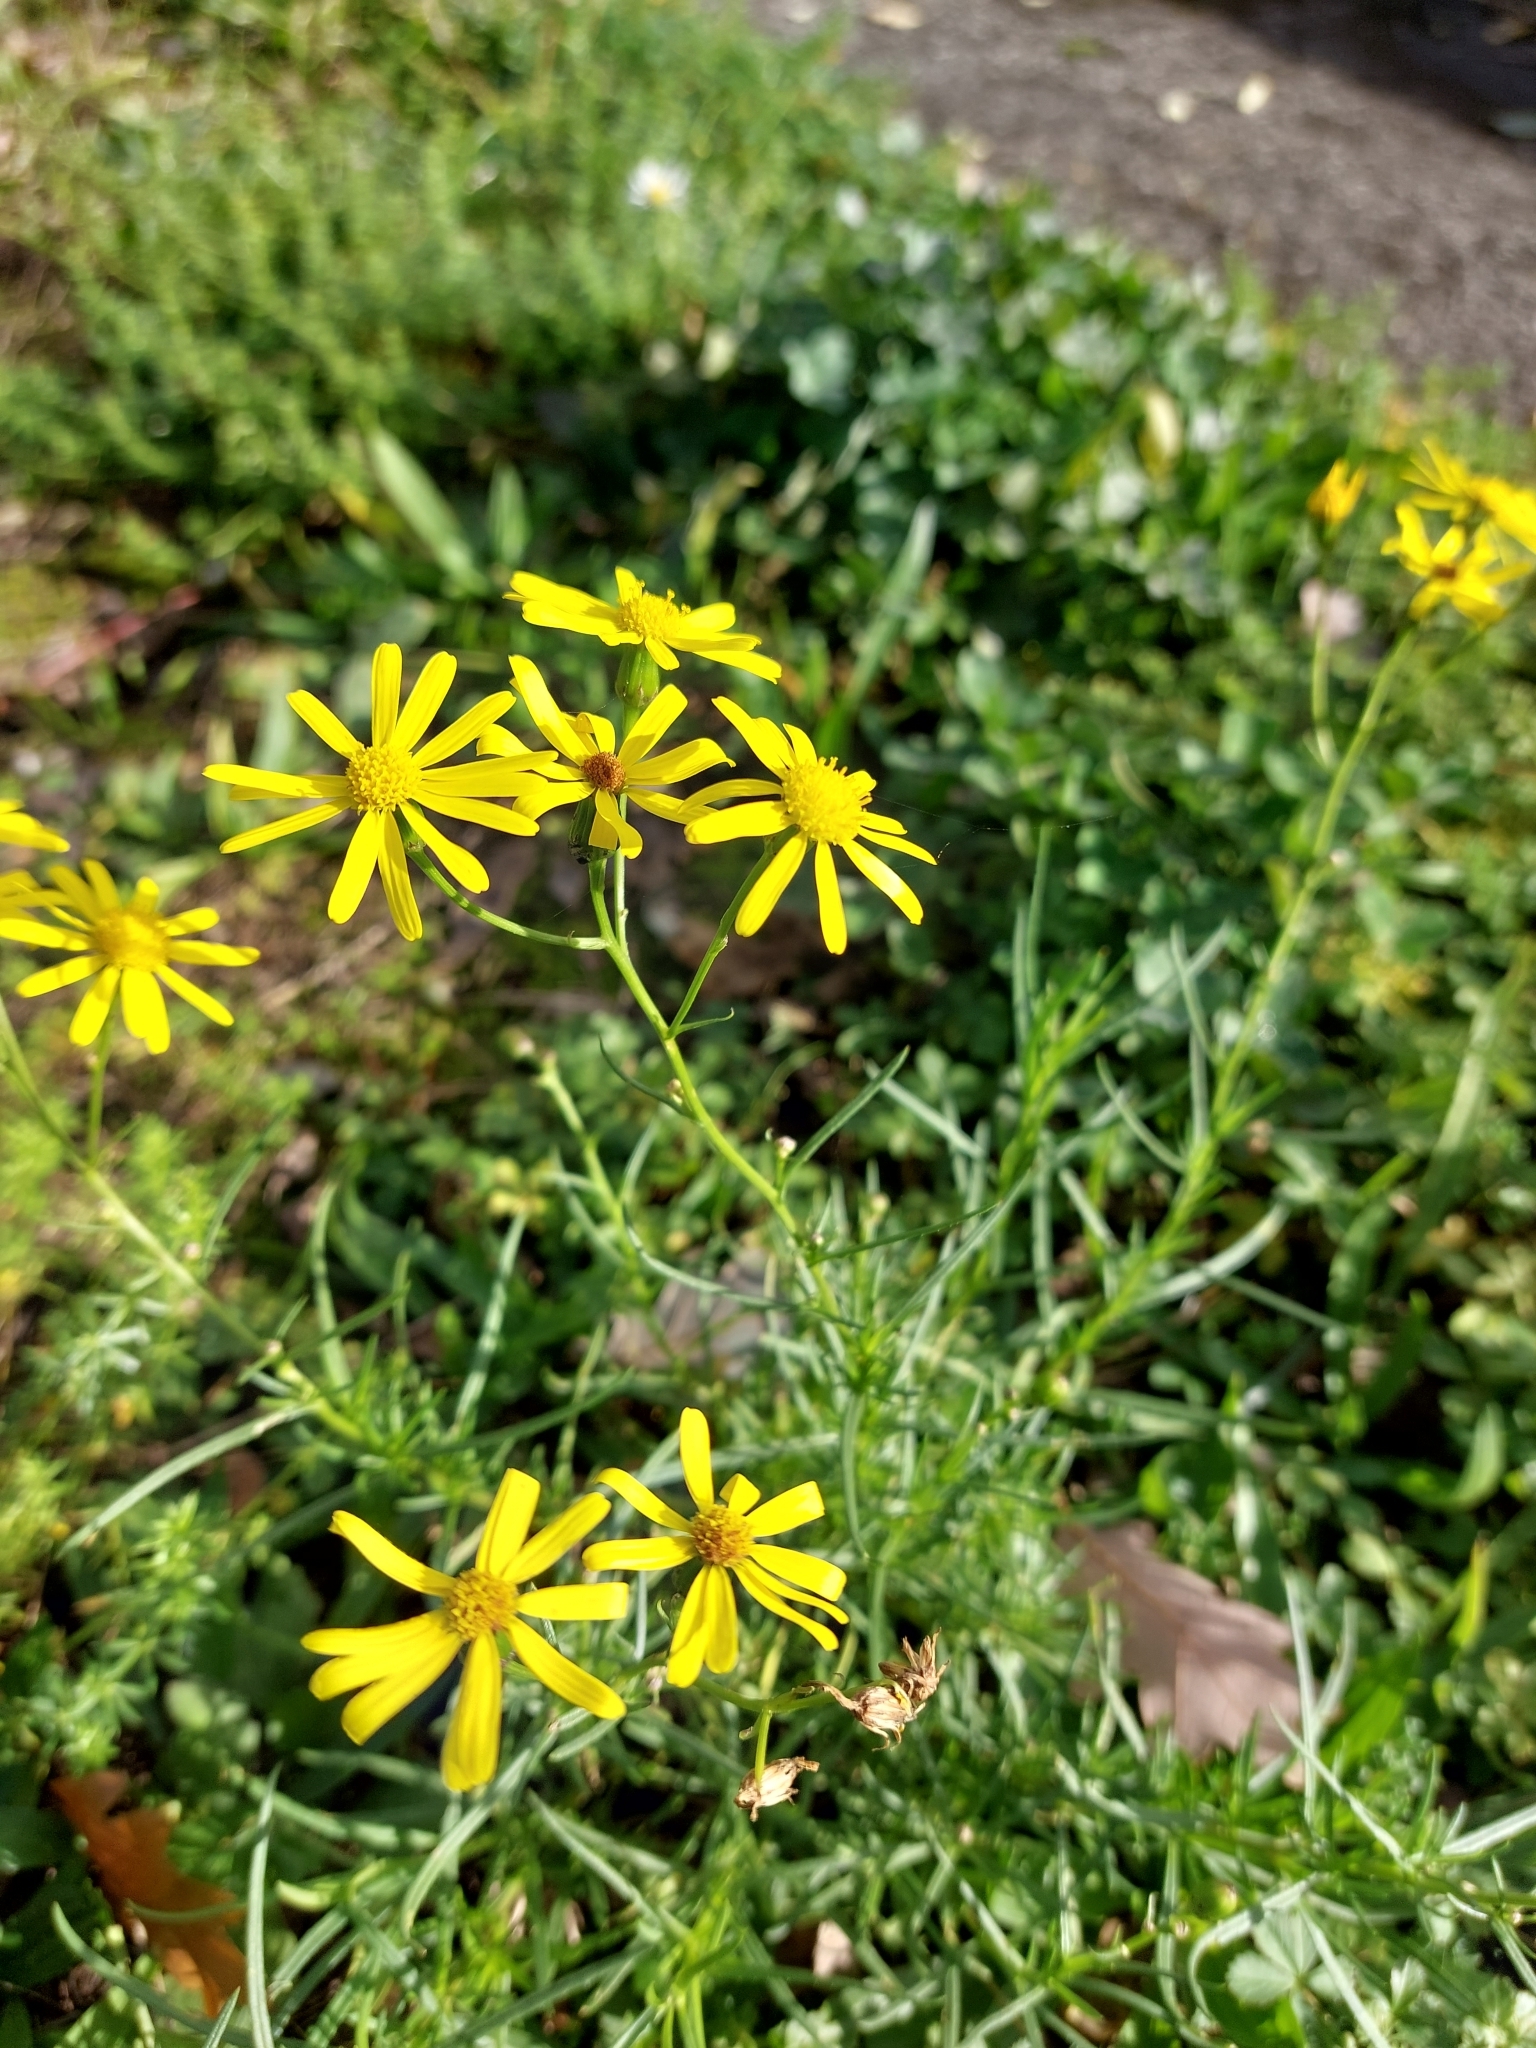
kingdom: Plantae
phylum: Tracheophyta
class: Magnoliopsida
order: Asterales
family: Asteraceae
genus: Senecio
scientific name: Senecio inaequidens
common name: Narrow-leaved ragwort
